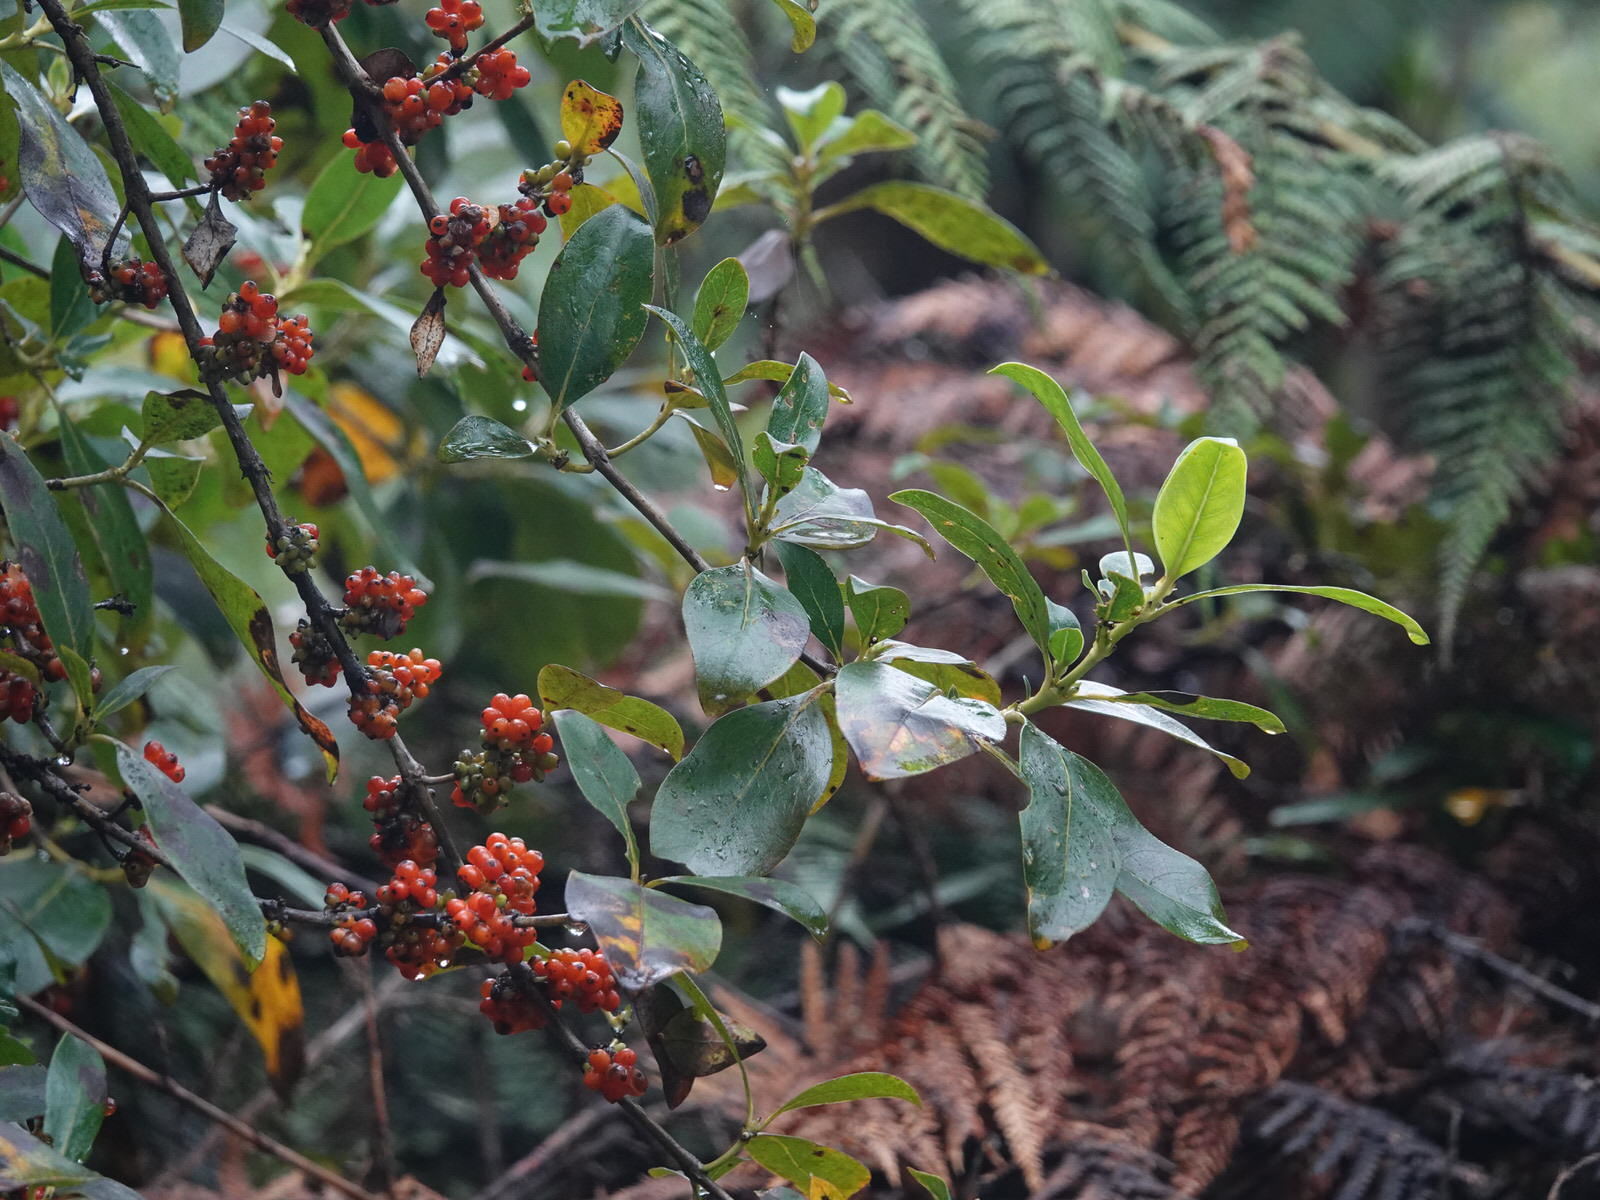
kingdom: Plantae
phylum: Tracheophyta
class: Magnoliopsida
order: Gentianales
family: Rubiaceae
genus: Coprosma
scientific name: Coprosma robusta
